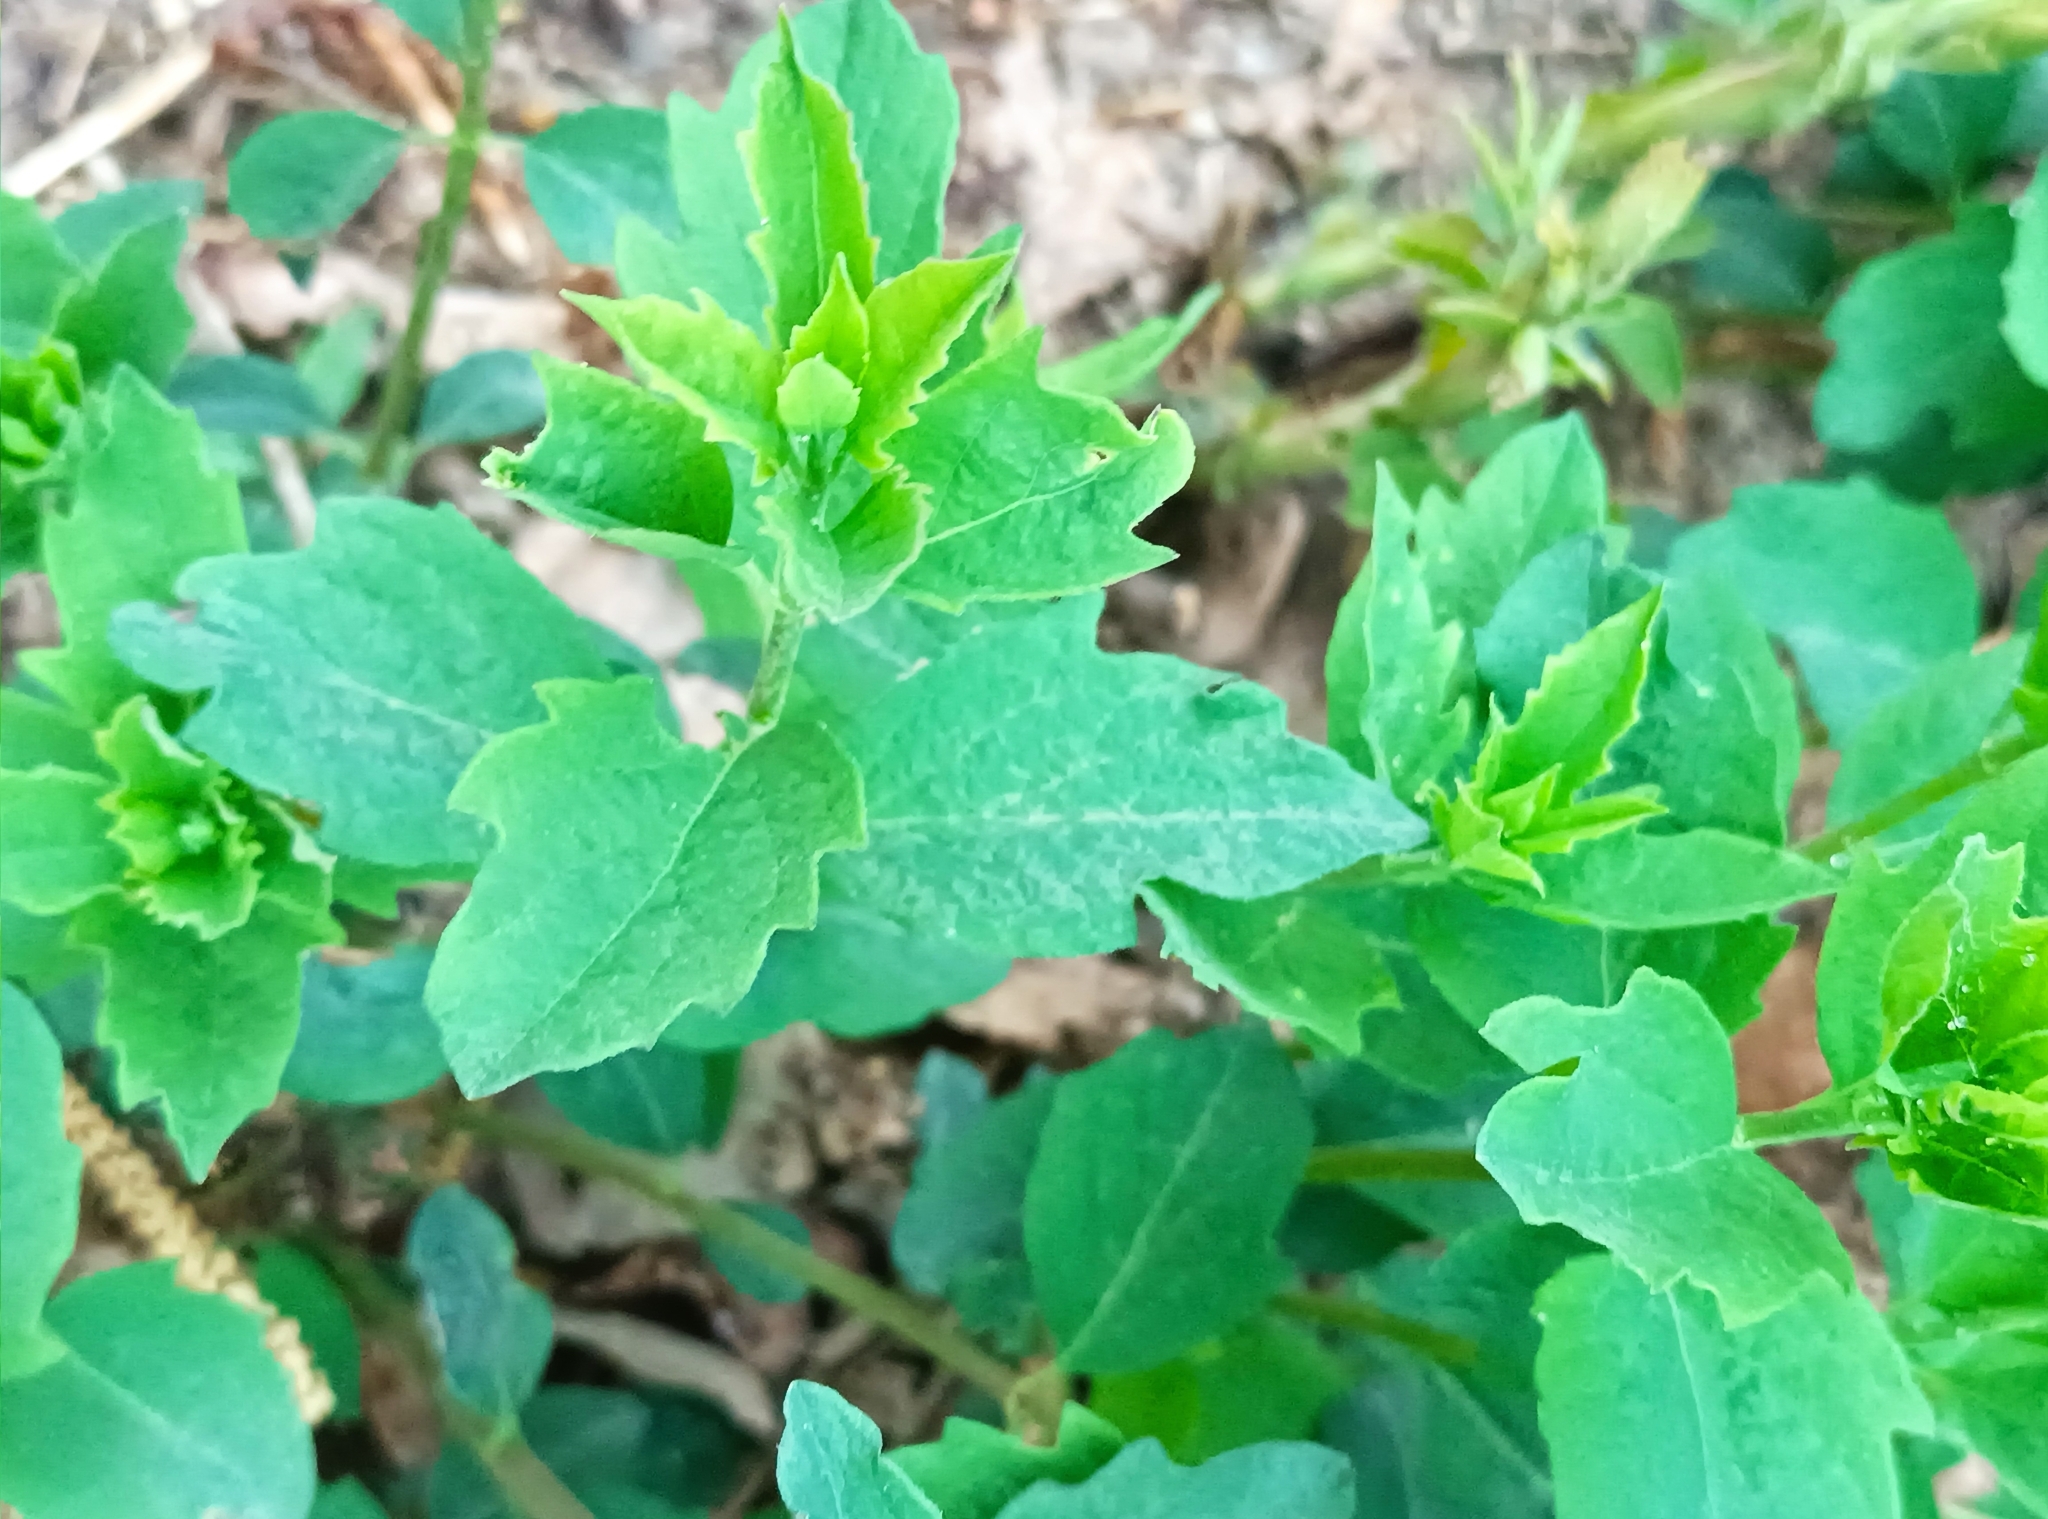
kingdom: Plantae
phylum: Tracheophyta
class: Magnoliopsida
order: Dipsacales
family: Caprifoliaceae
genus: Symphoricarpos
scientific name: Symphoricarpos albus
